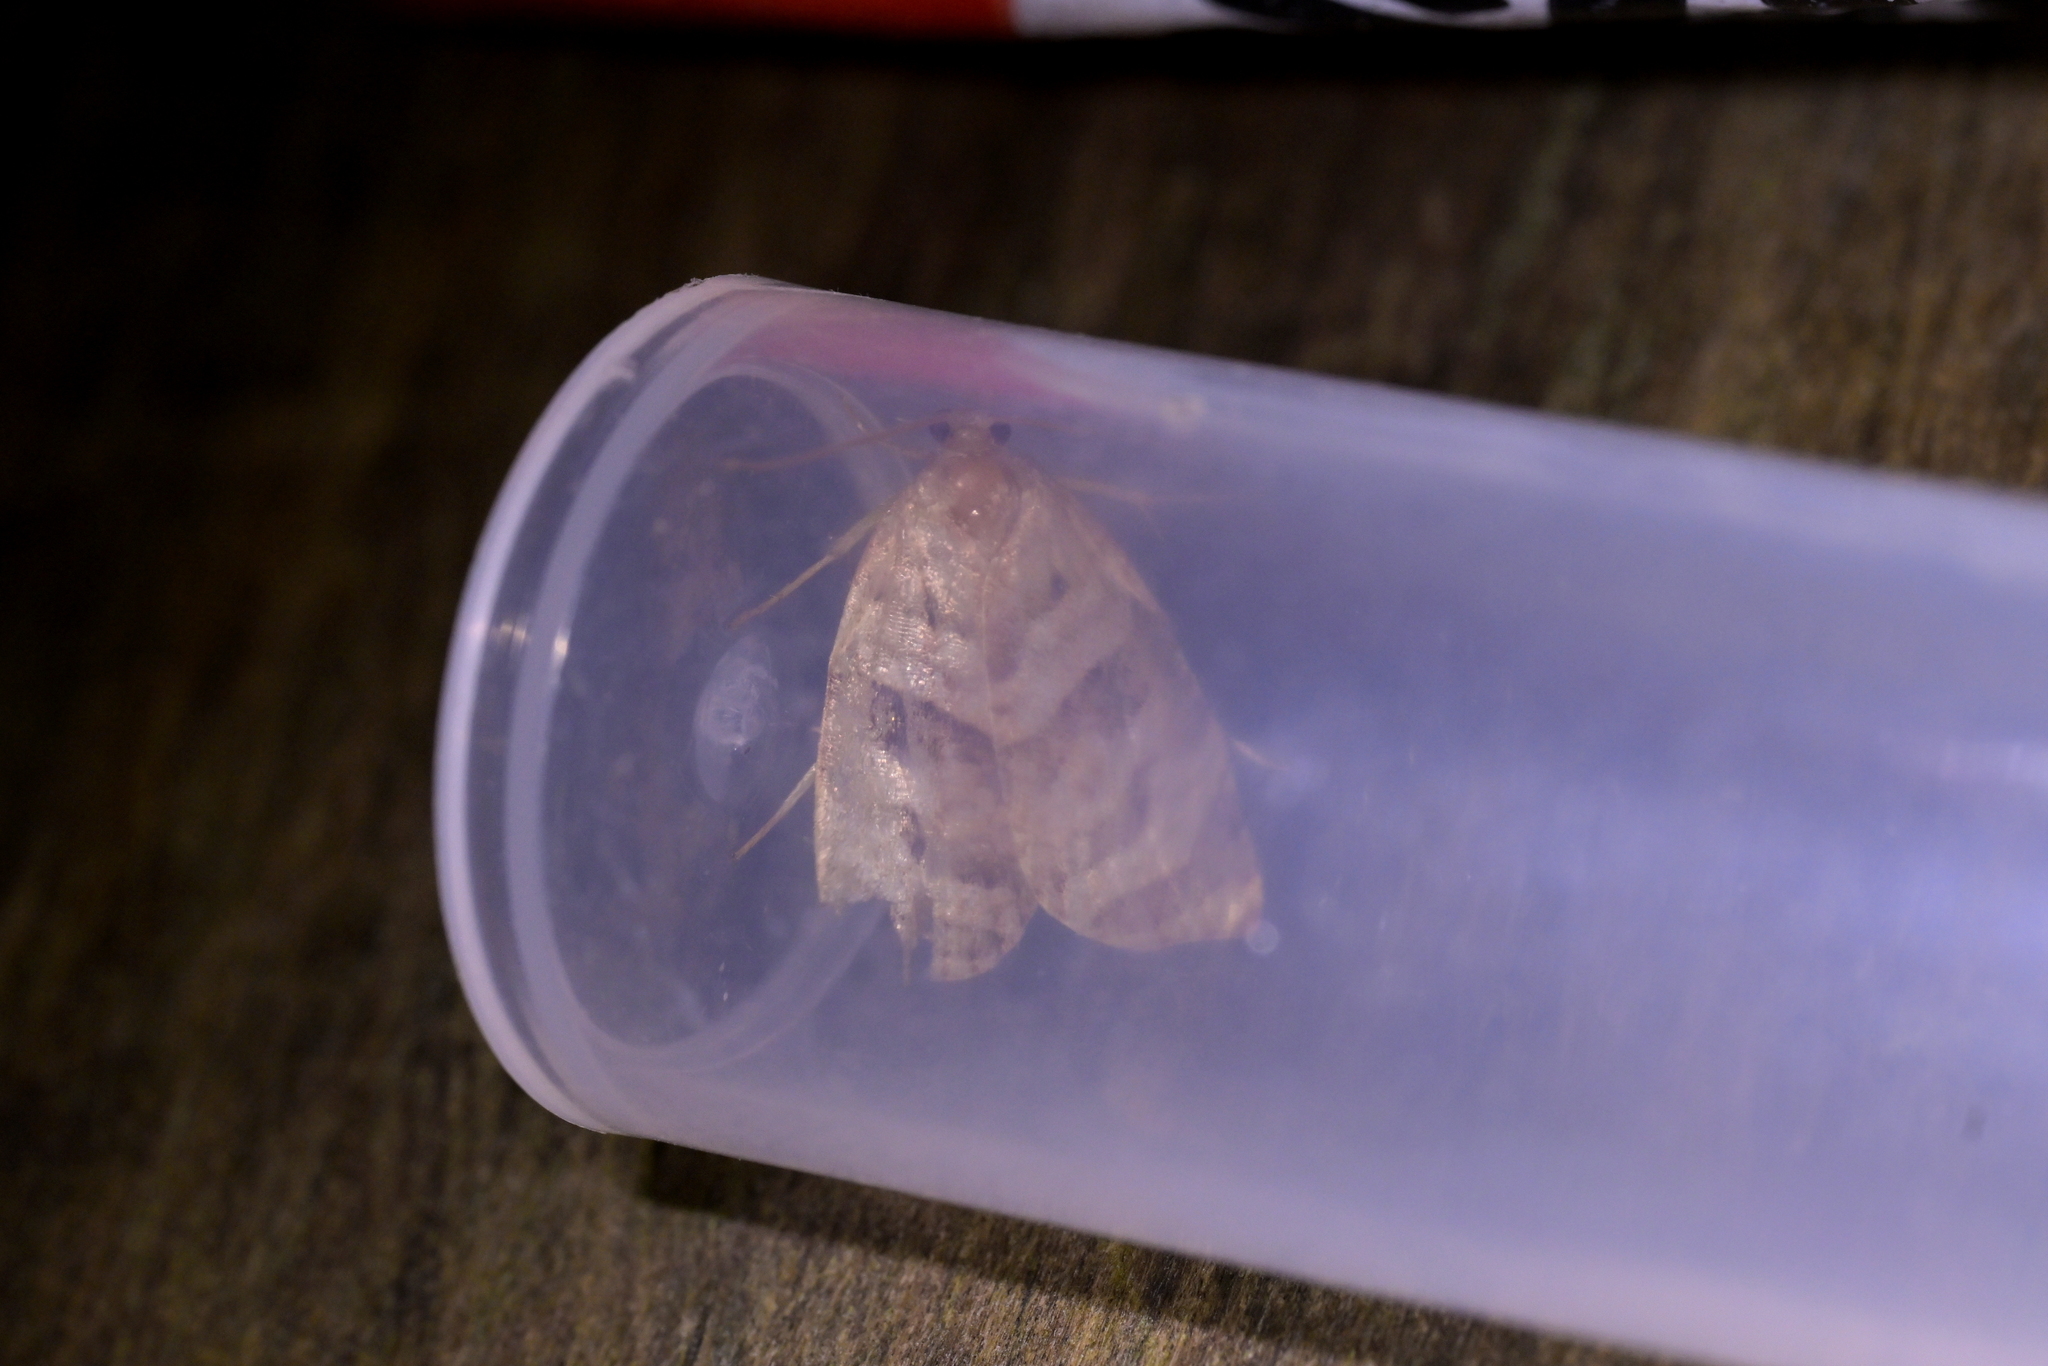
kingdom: Animalia
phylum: Arthropoda
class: Insecta
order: Lepidoptera
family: Tortricidae
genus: Apoctena
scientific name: Apoctena tigris
